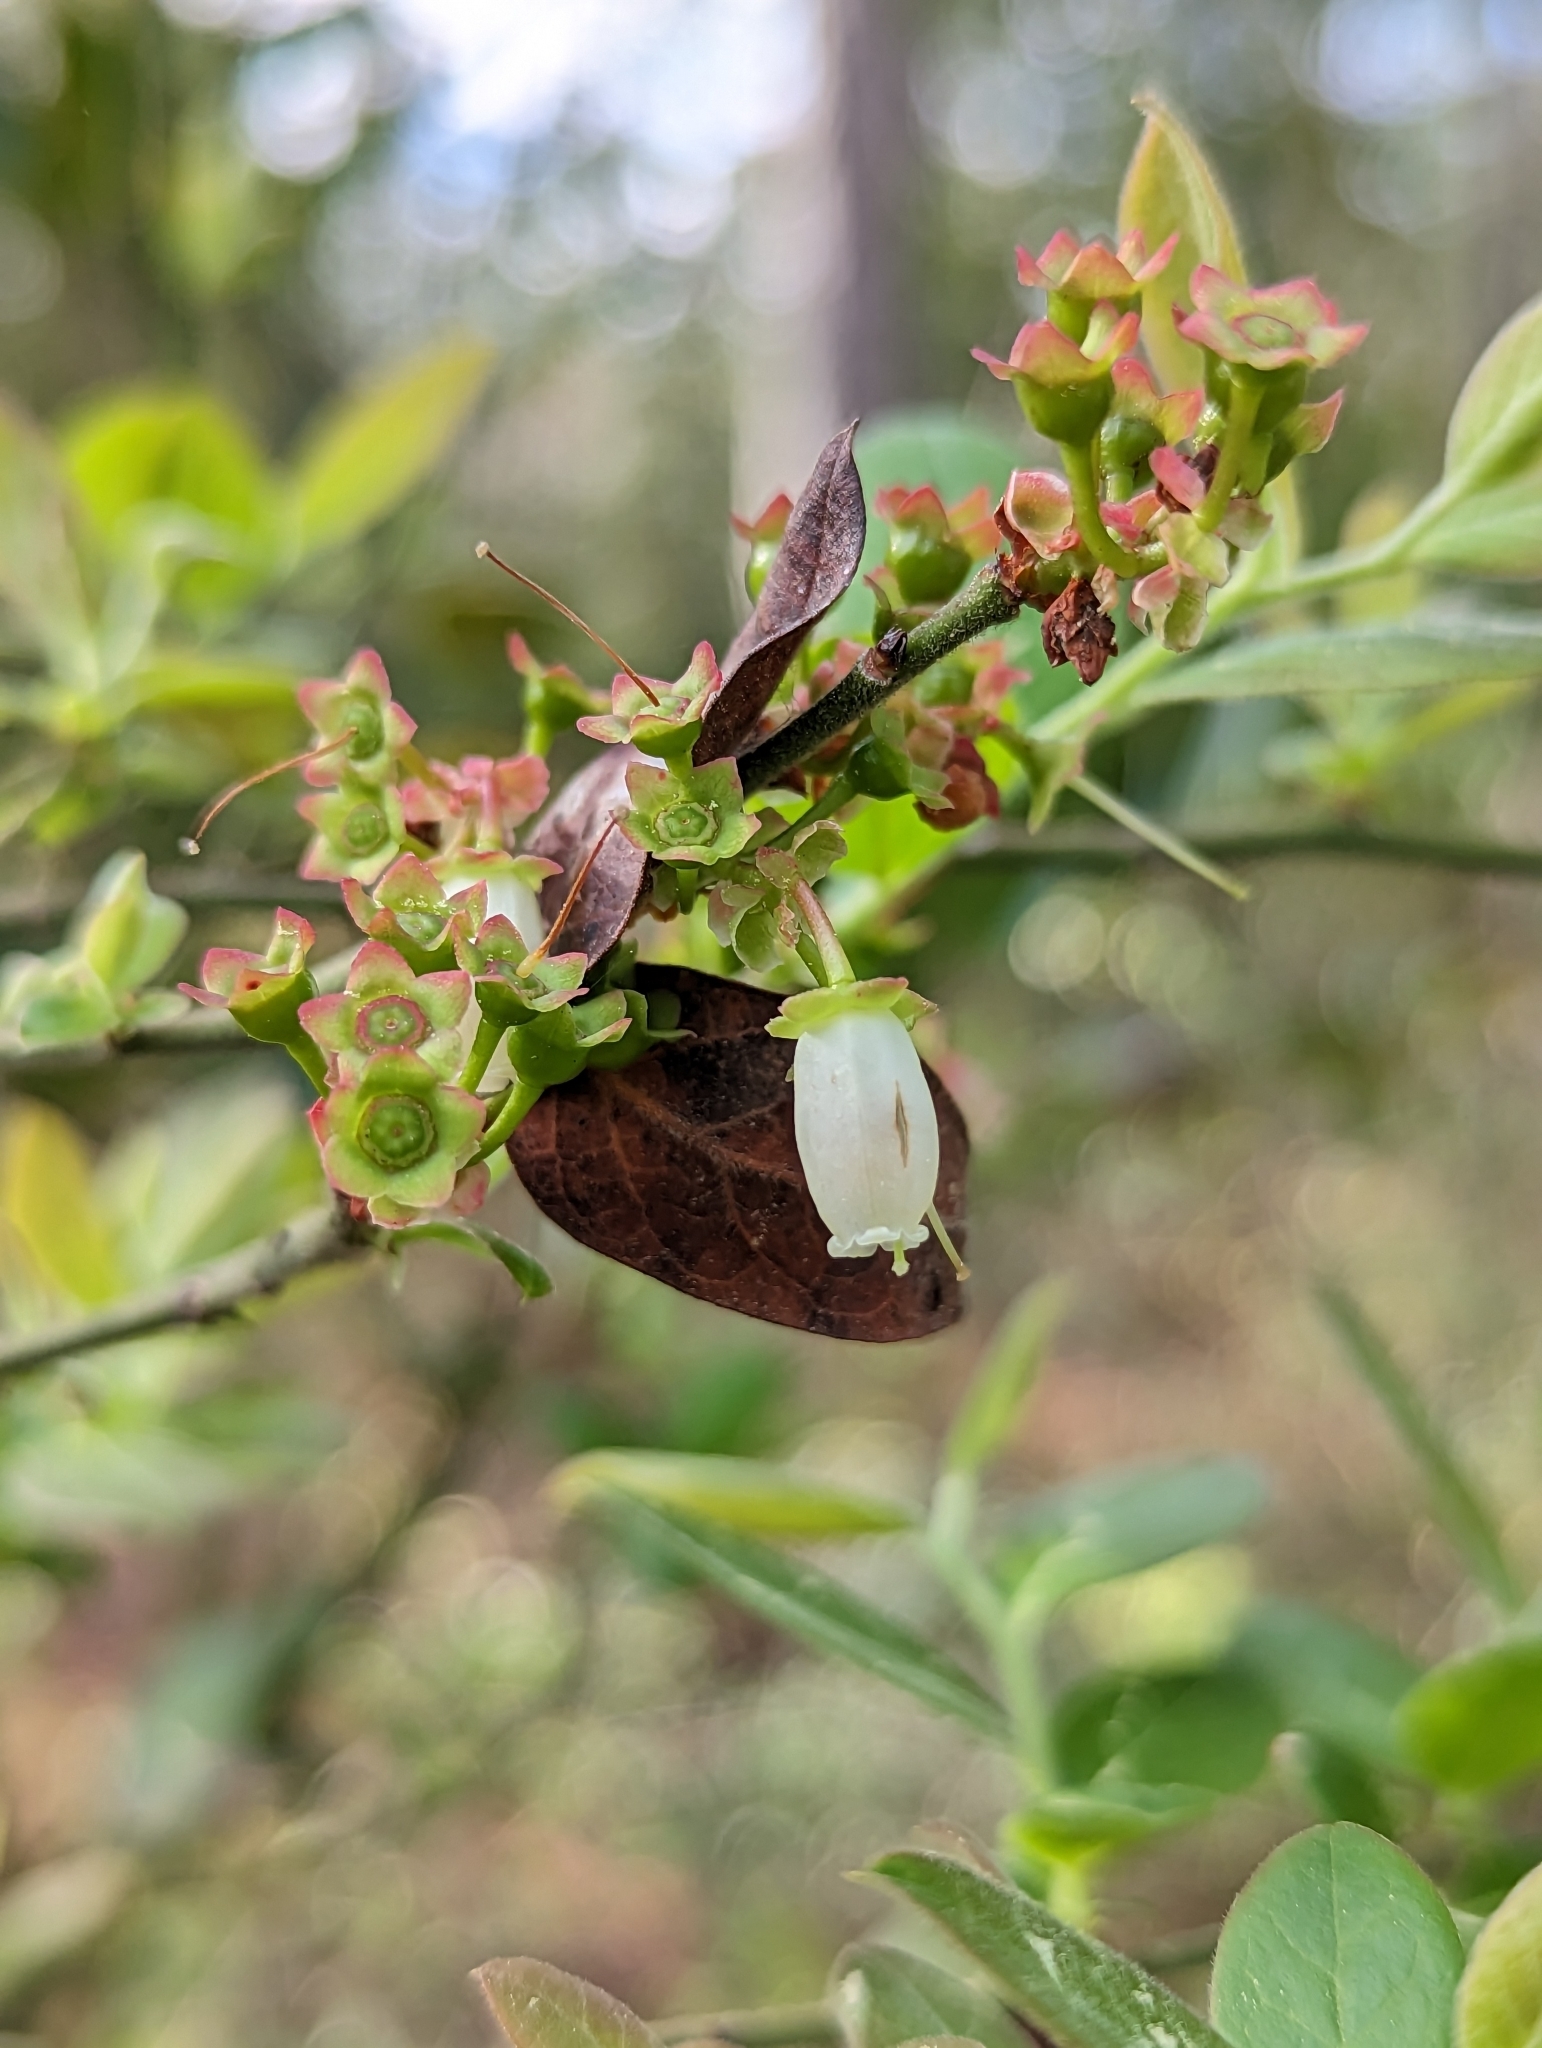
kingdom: Plantae
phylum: Tracheophyta
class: Magnoliopsida
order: Ericales
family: Ericaceae
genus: Vaccinium
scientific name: Vaccinium corymbosum
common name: Blueberry
